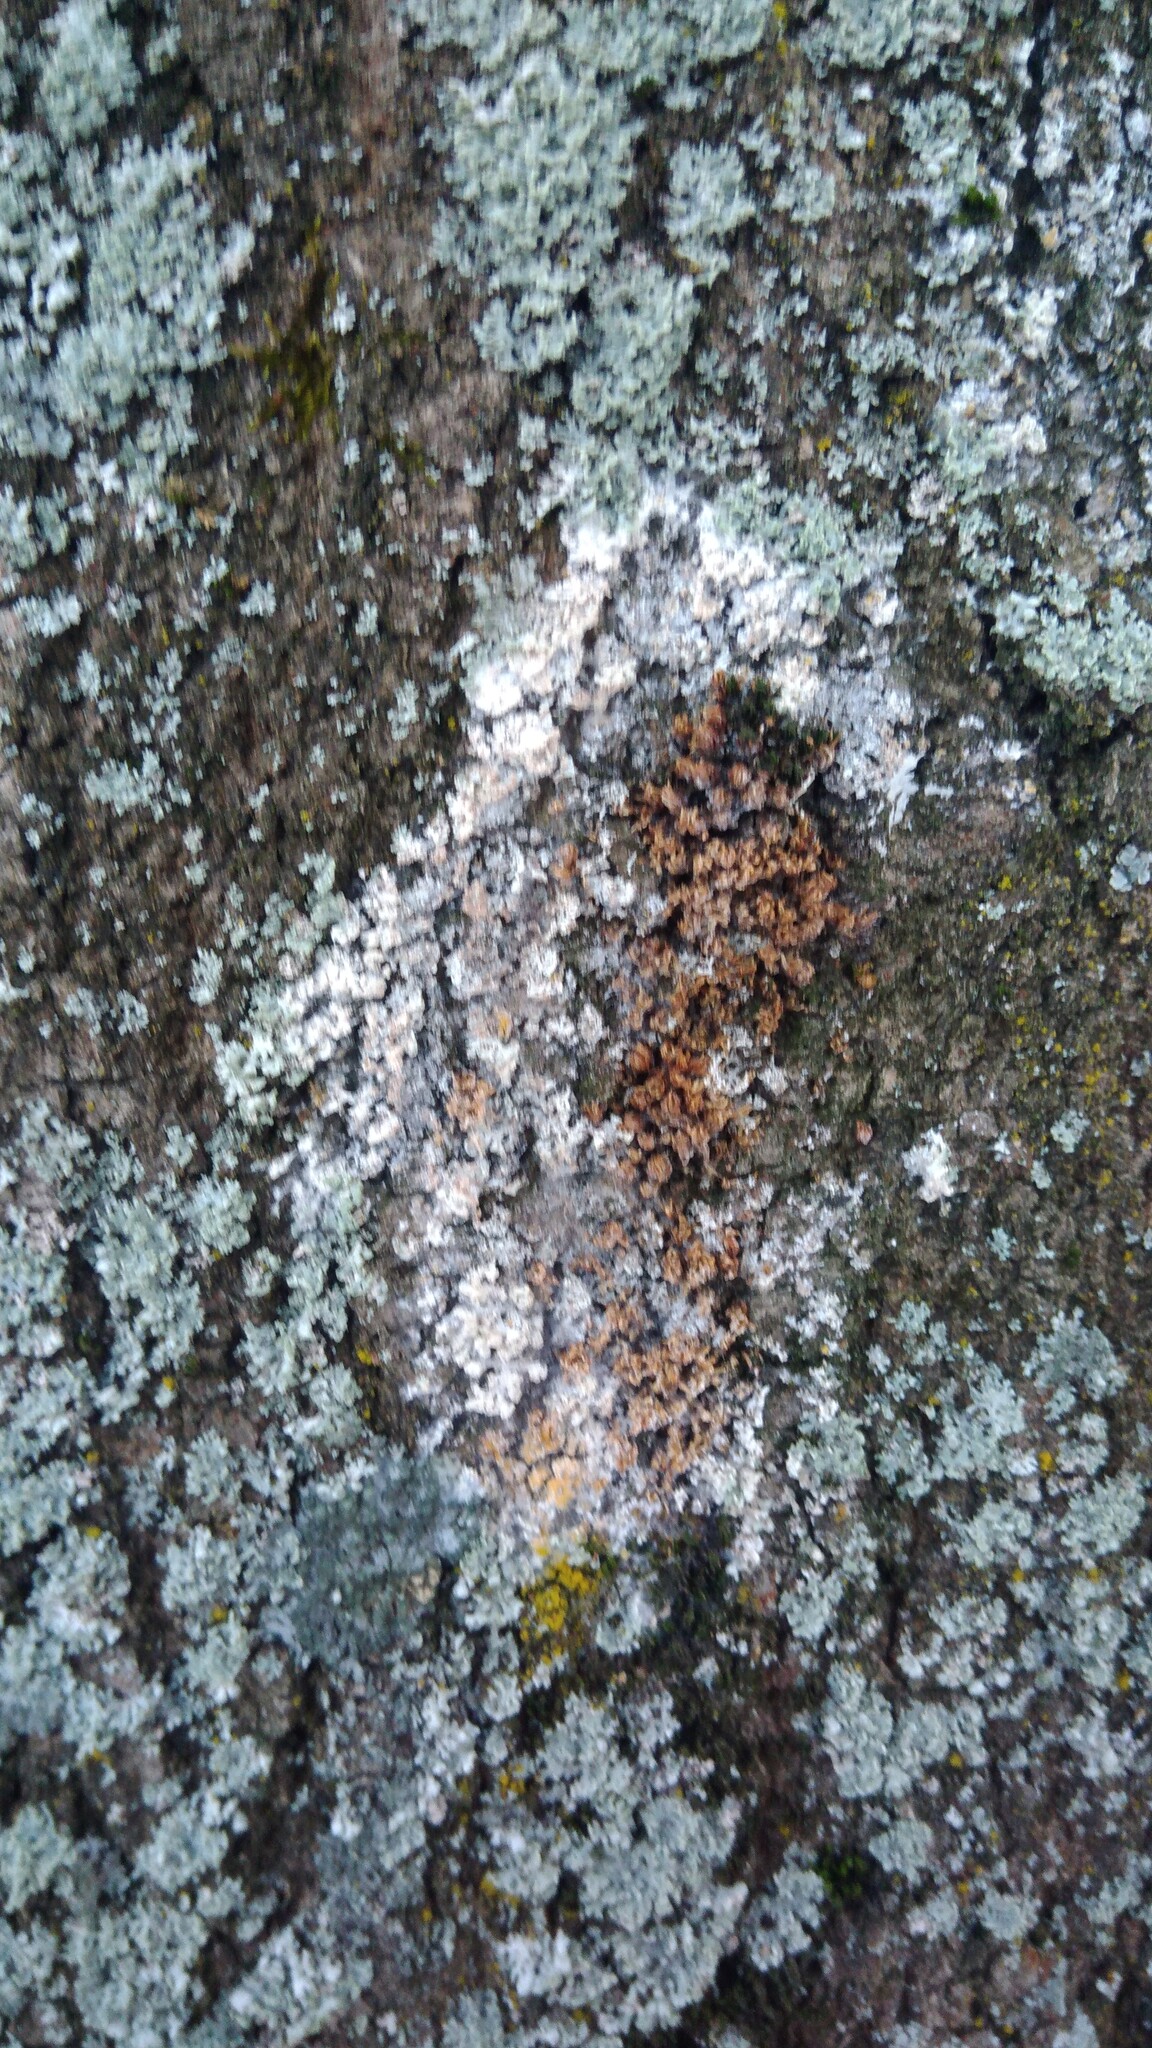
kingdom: Fungi
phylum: Basidiomycota
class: Agaricomycetes
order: Atheliales
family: Atheliaceae
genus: Athelia
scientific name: Athelia arachnoidea
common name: Candelabra duster
